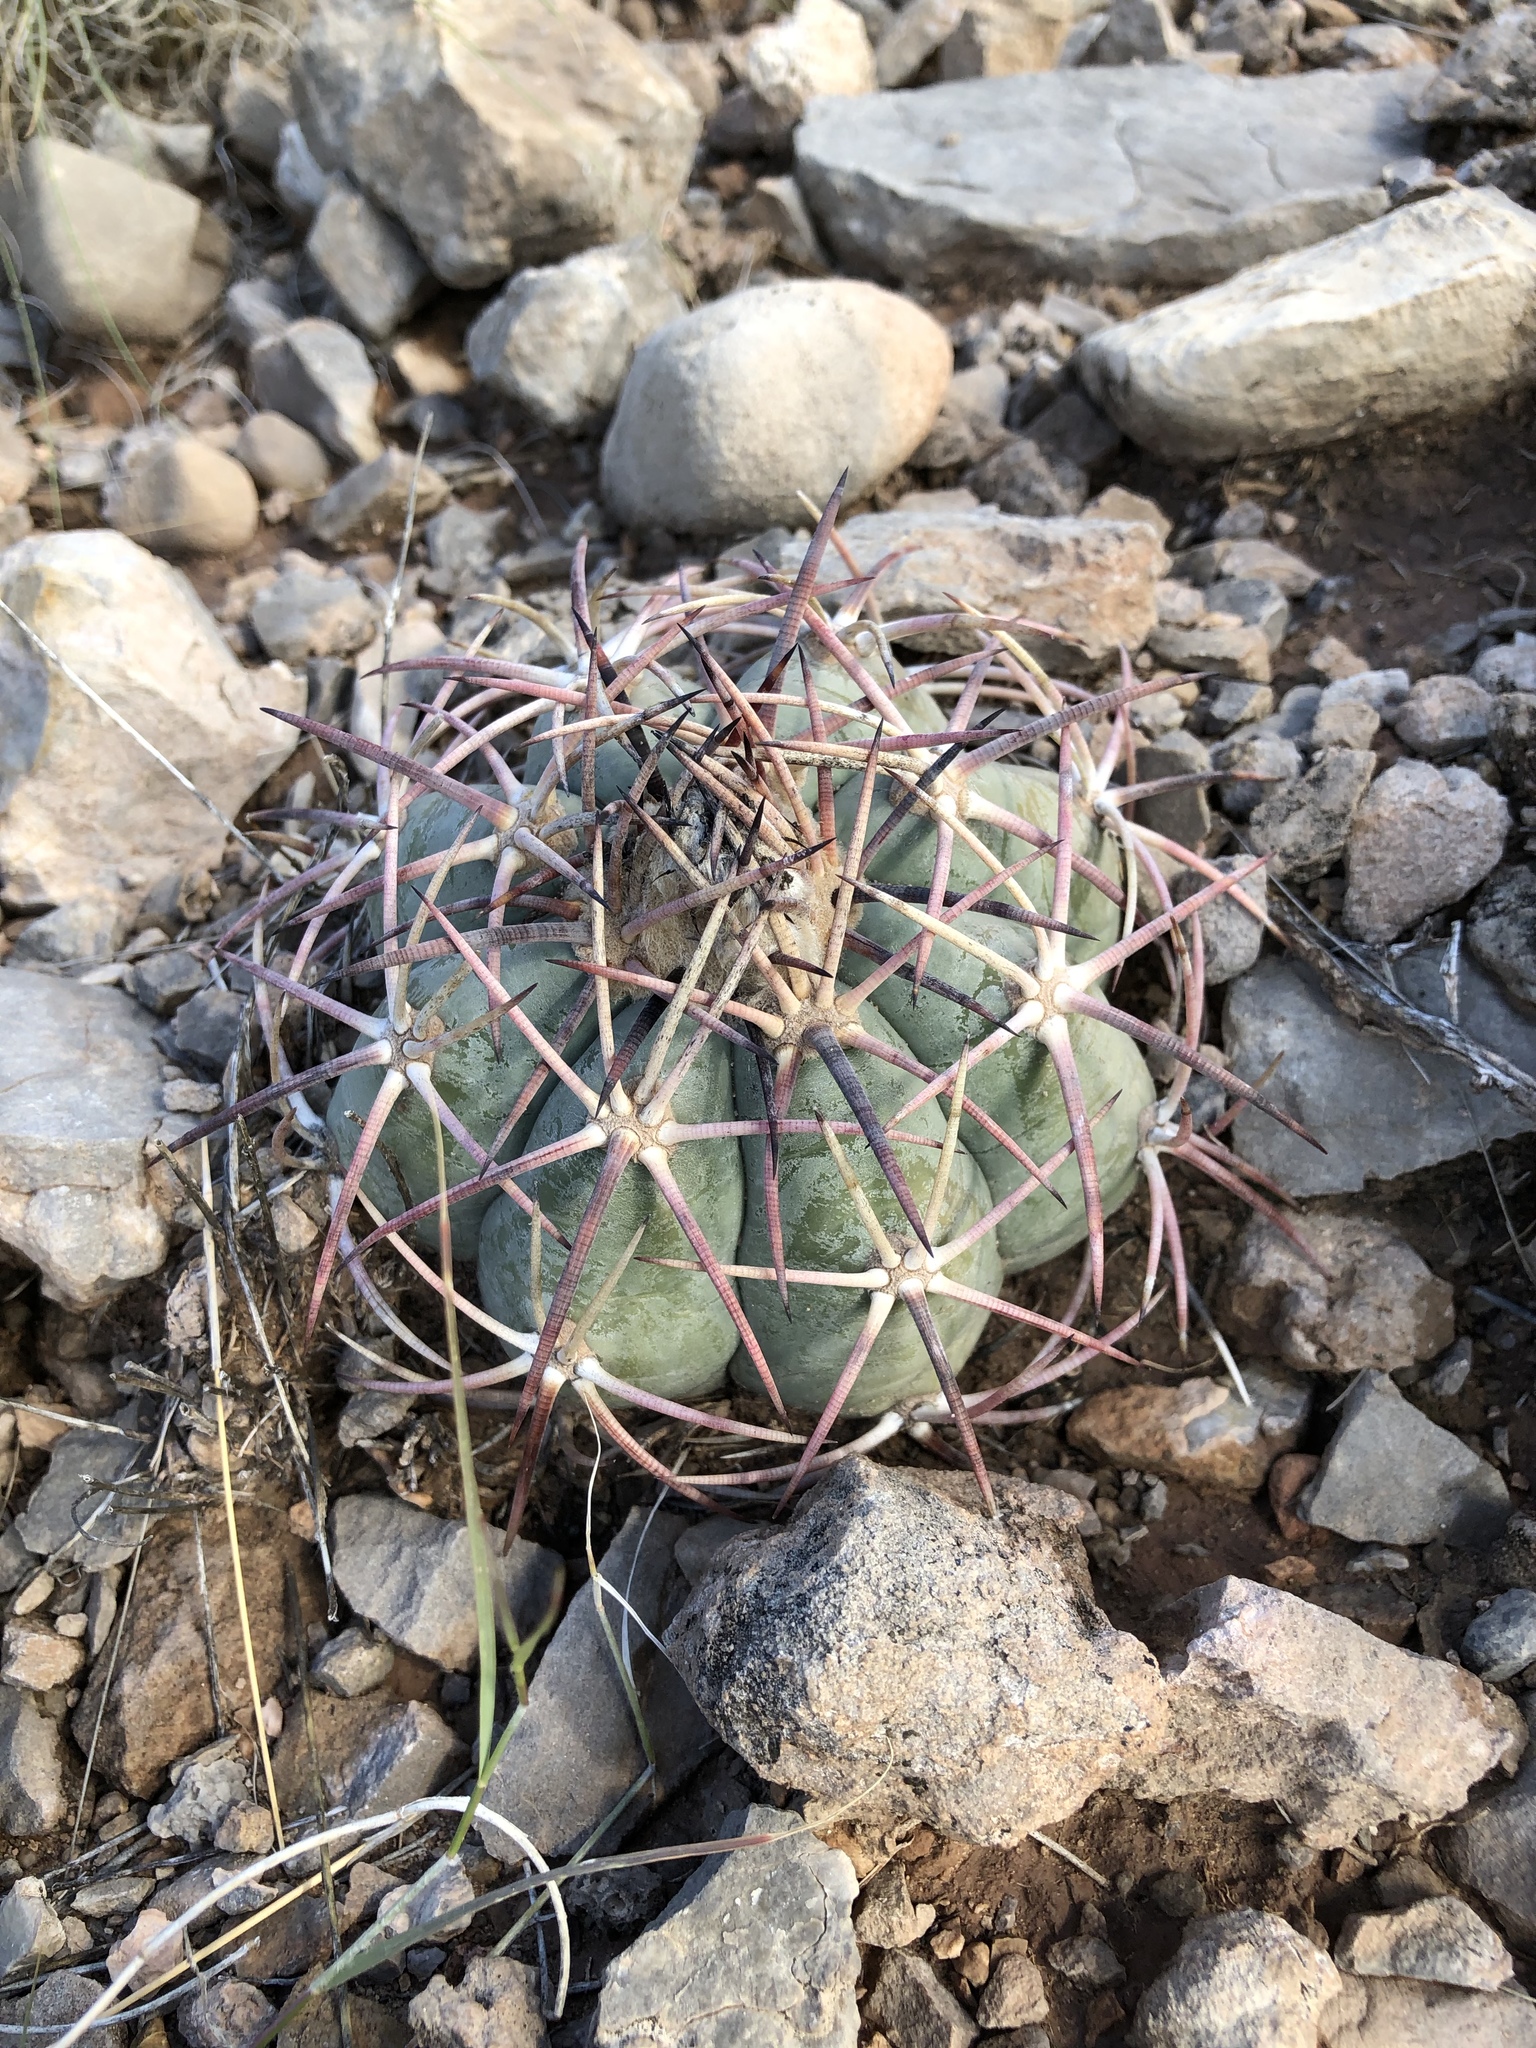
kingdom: Plantae
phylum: Tracheophyta
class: Magnoliopsida
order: Caryophyllales
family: Cactaceae
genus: Echinocactus
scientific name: Echinocactus horizonthalonius
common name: Devilshead
